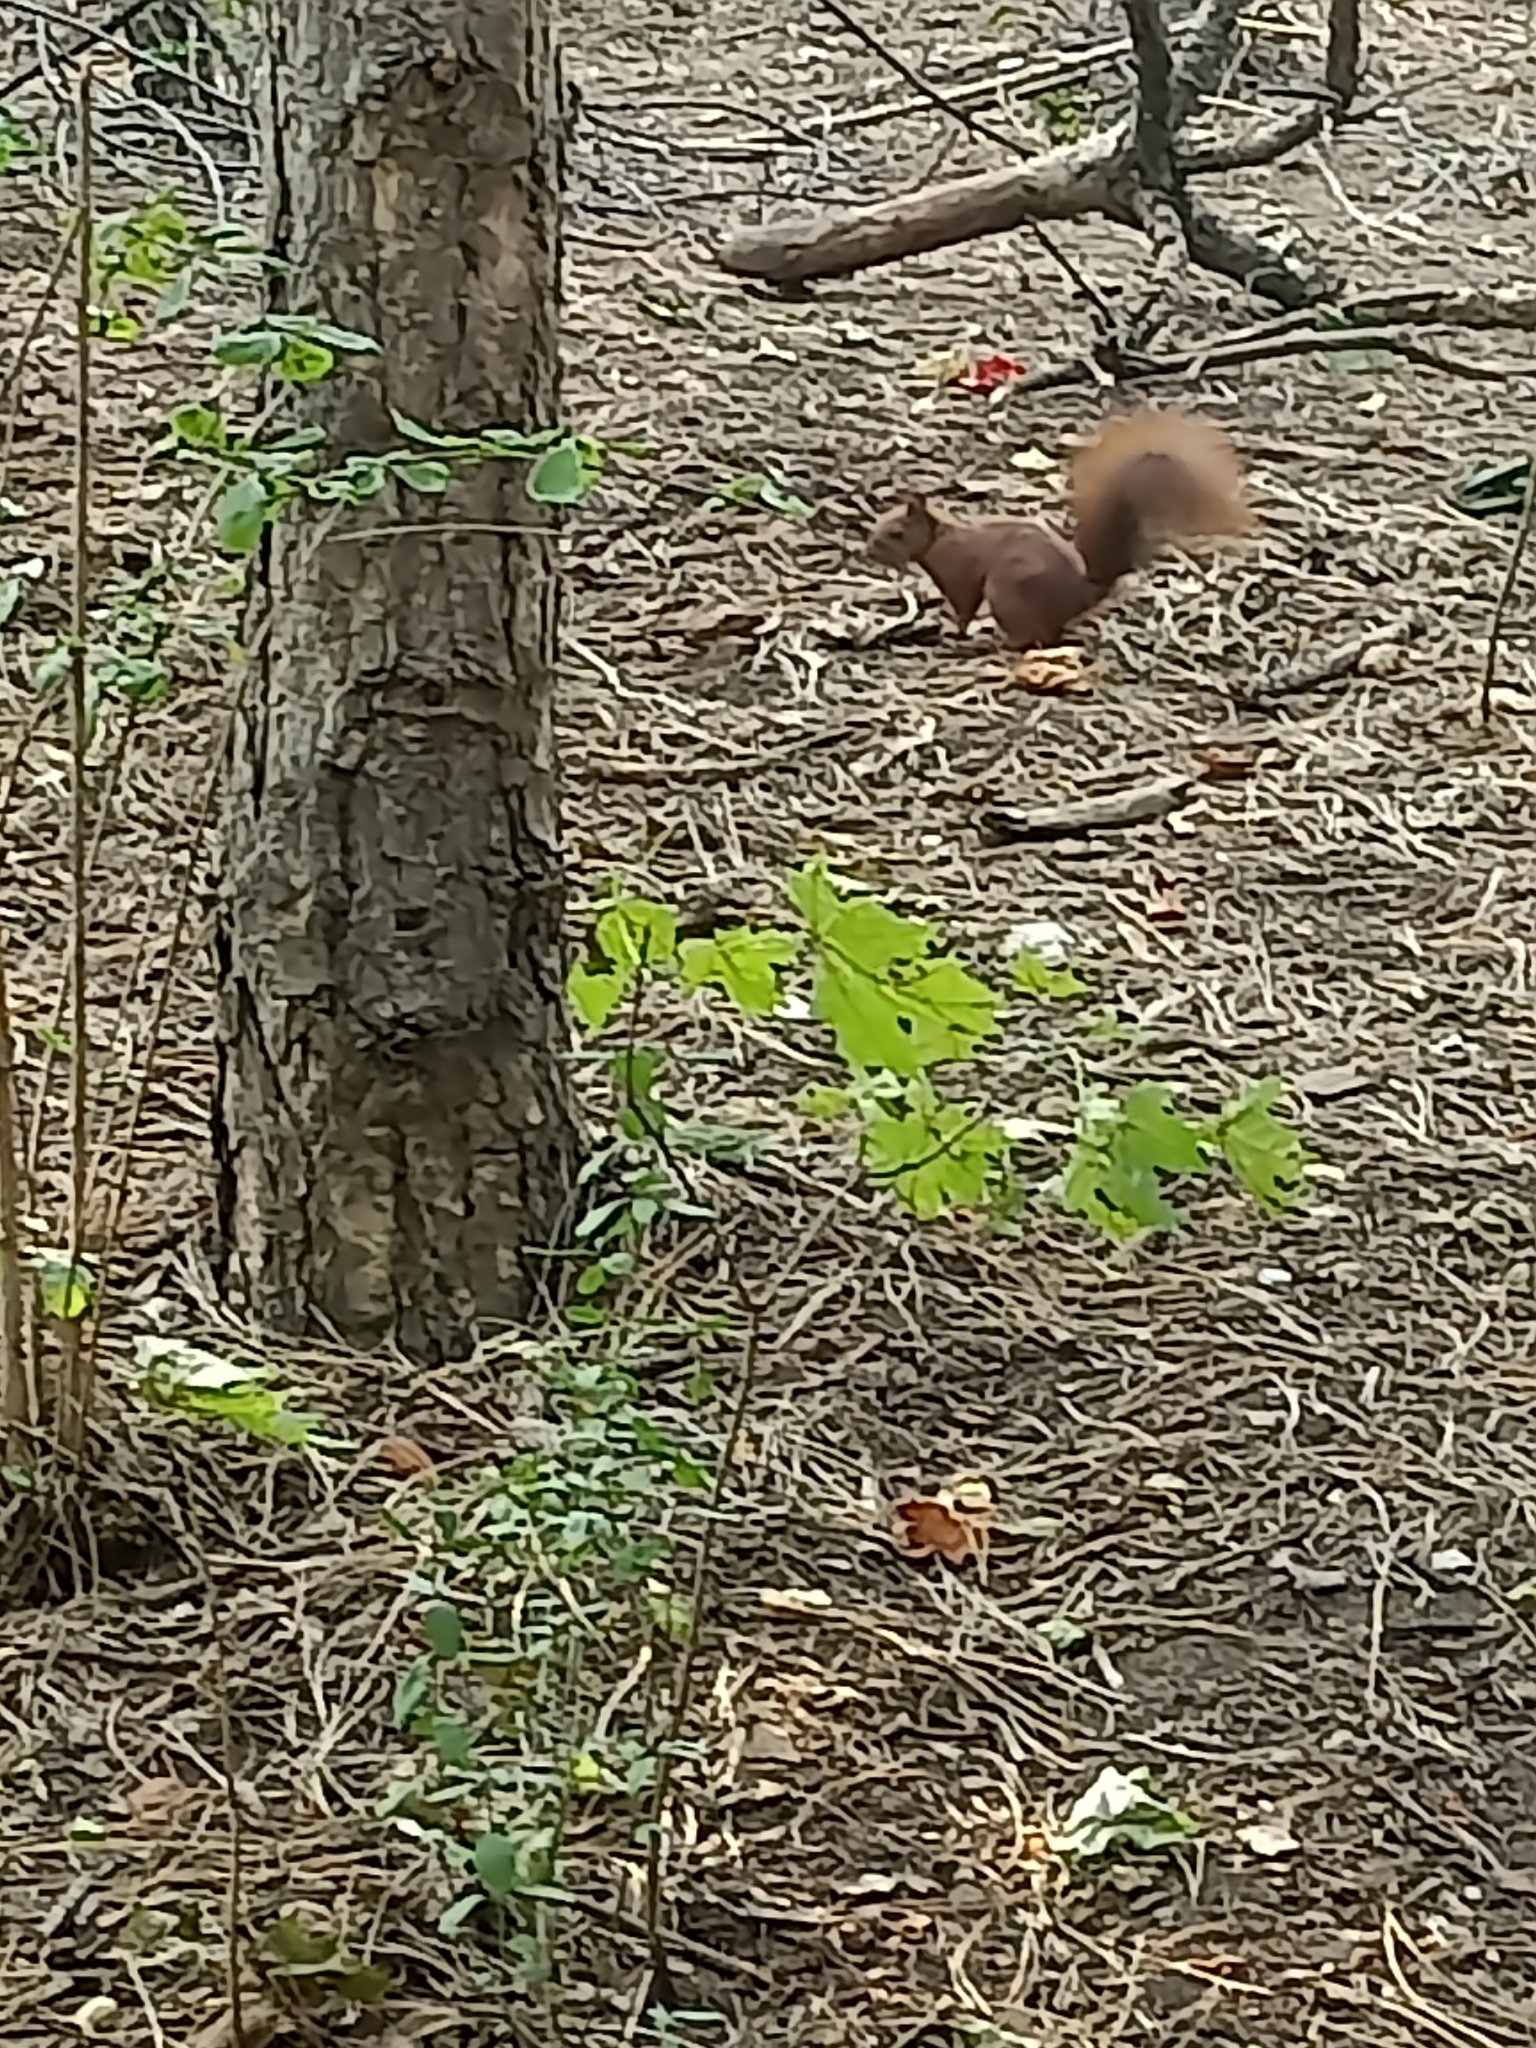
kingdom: Animalia
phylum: Chordata
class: Mammalia
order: Rodentia
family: Sciuridae
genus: Sciurus
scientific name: Sciurus vulgaris
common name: Eurasian red squirrel
